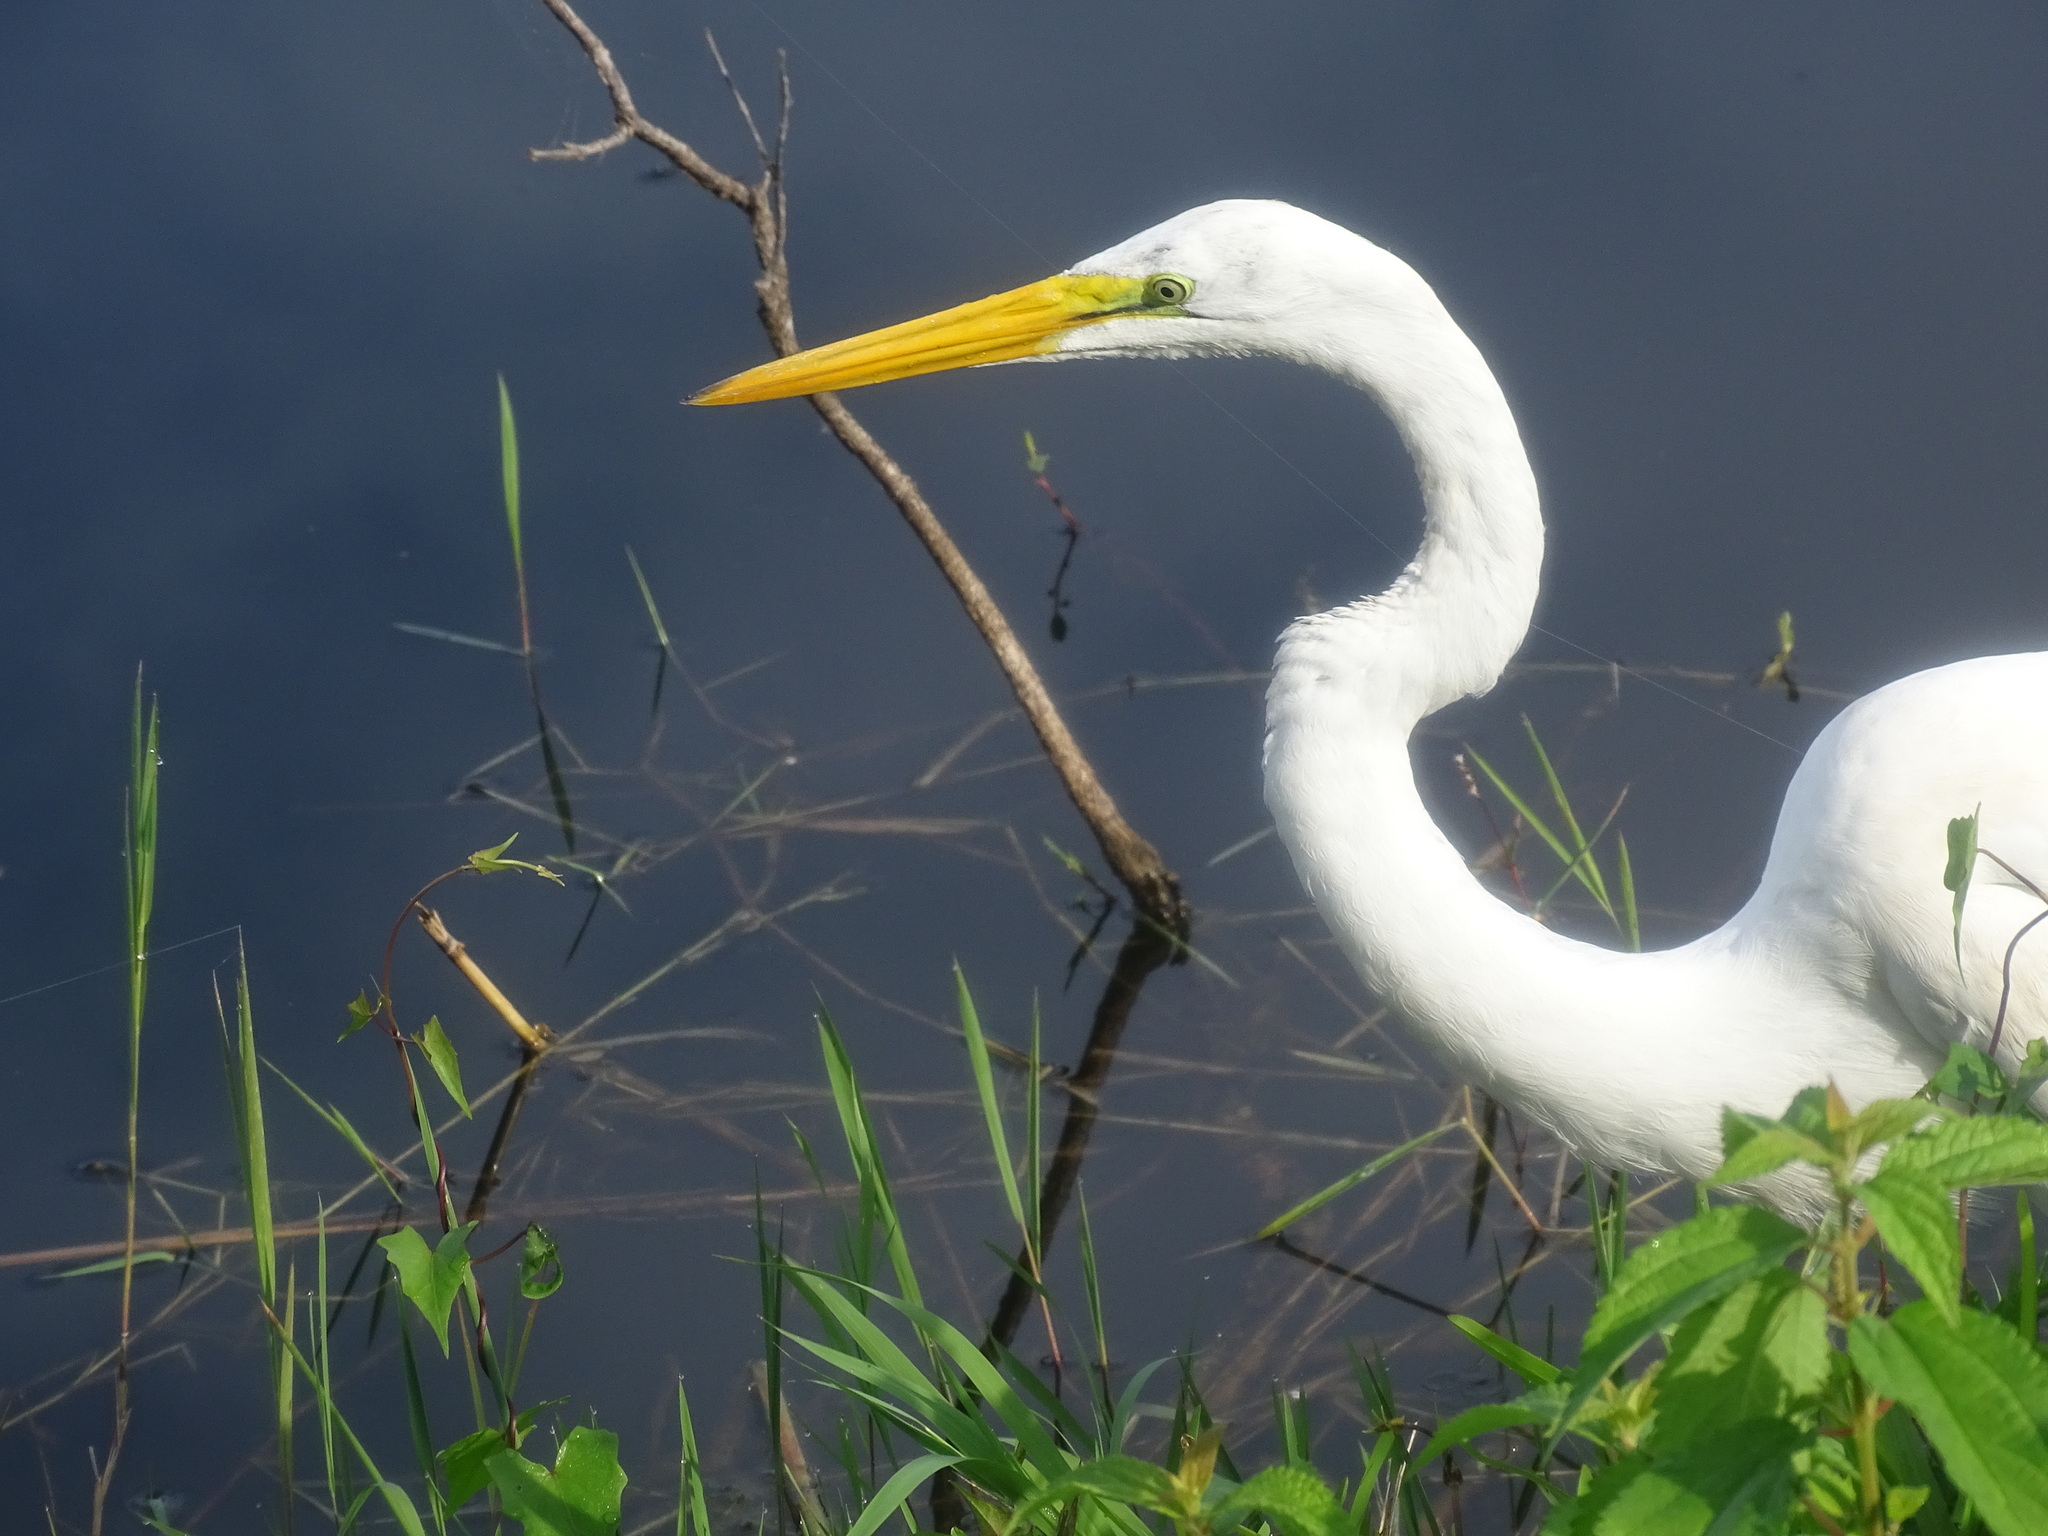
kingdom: Animalia
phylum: Chordata
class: Aves
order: Pelecaniformes
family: Ardeidae
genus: Ardea
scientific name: Ardea alba
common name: Great egret
